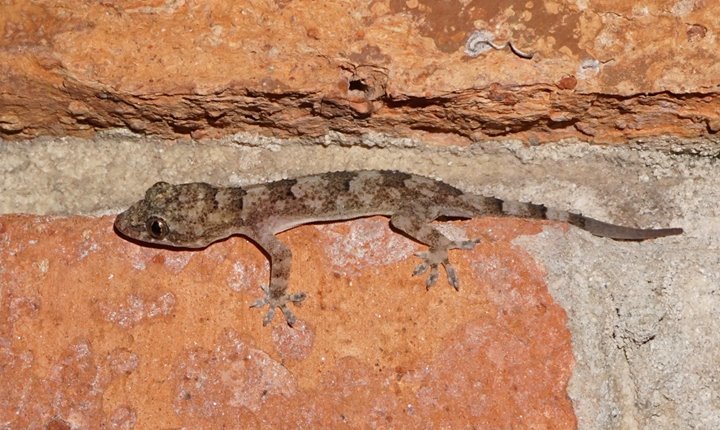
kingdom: Animalia
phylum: Chordata
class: Squamata
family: Gekkonidae
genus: Hemidactylus
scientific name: Hemidactylus mabouia
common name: House gecko
